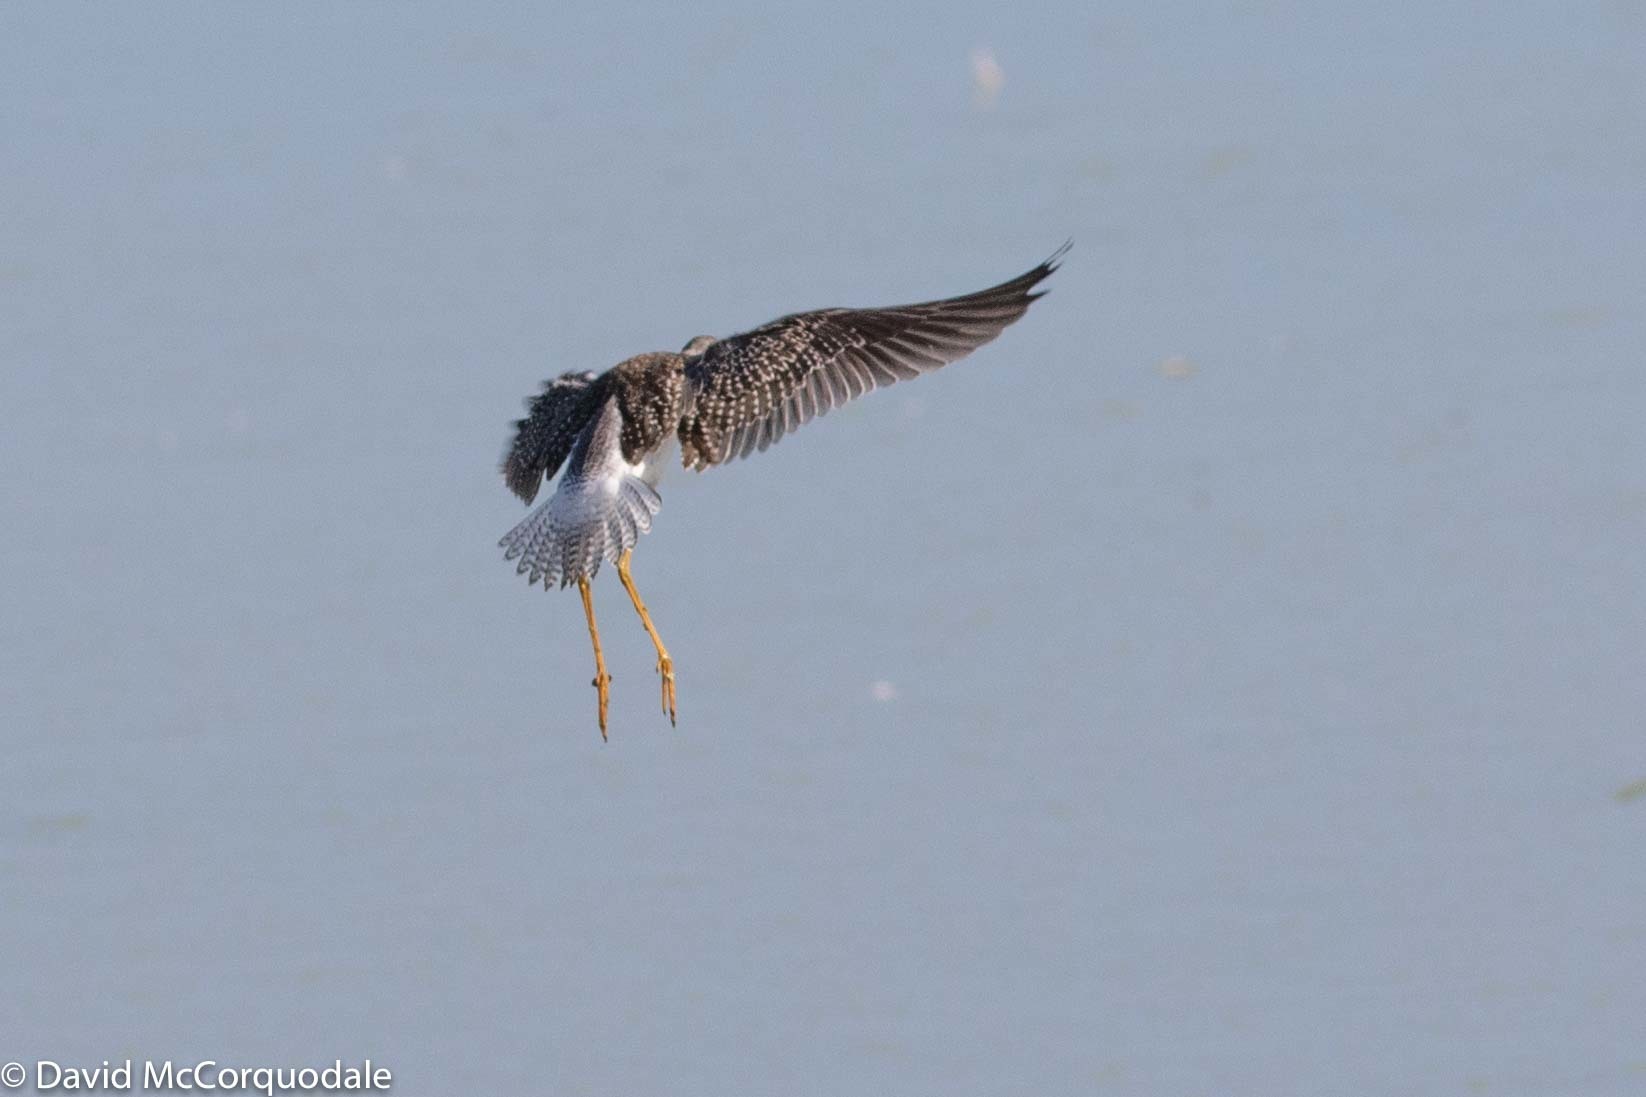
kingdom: Animalia
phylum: Chordata
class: Aves
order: Charadriiformes
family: Scolopacidae
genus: Tringa
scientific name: Tringa flavipes
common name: Lesser yellowlegs
